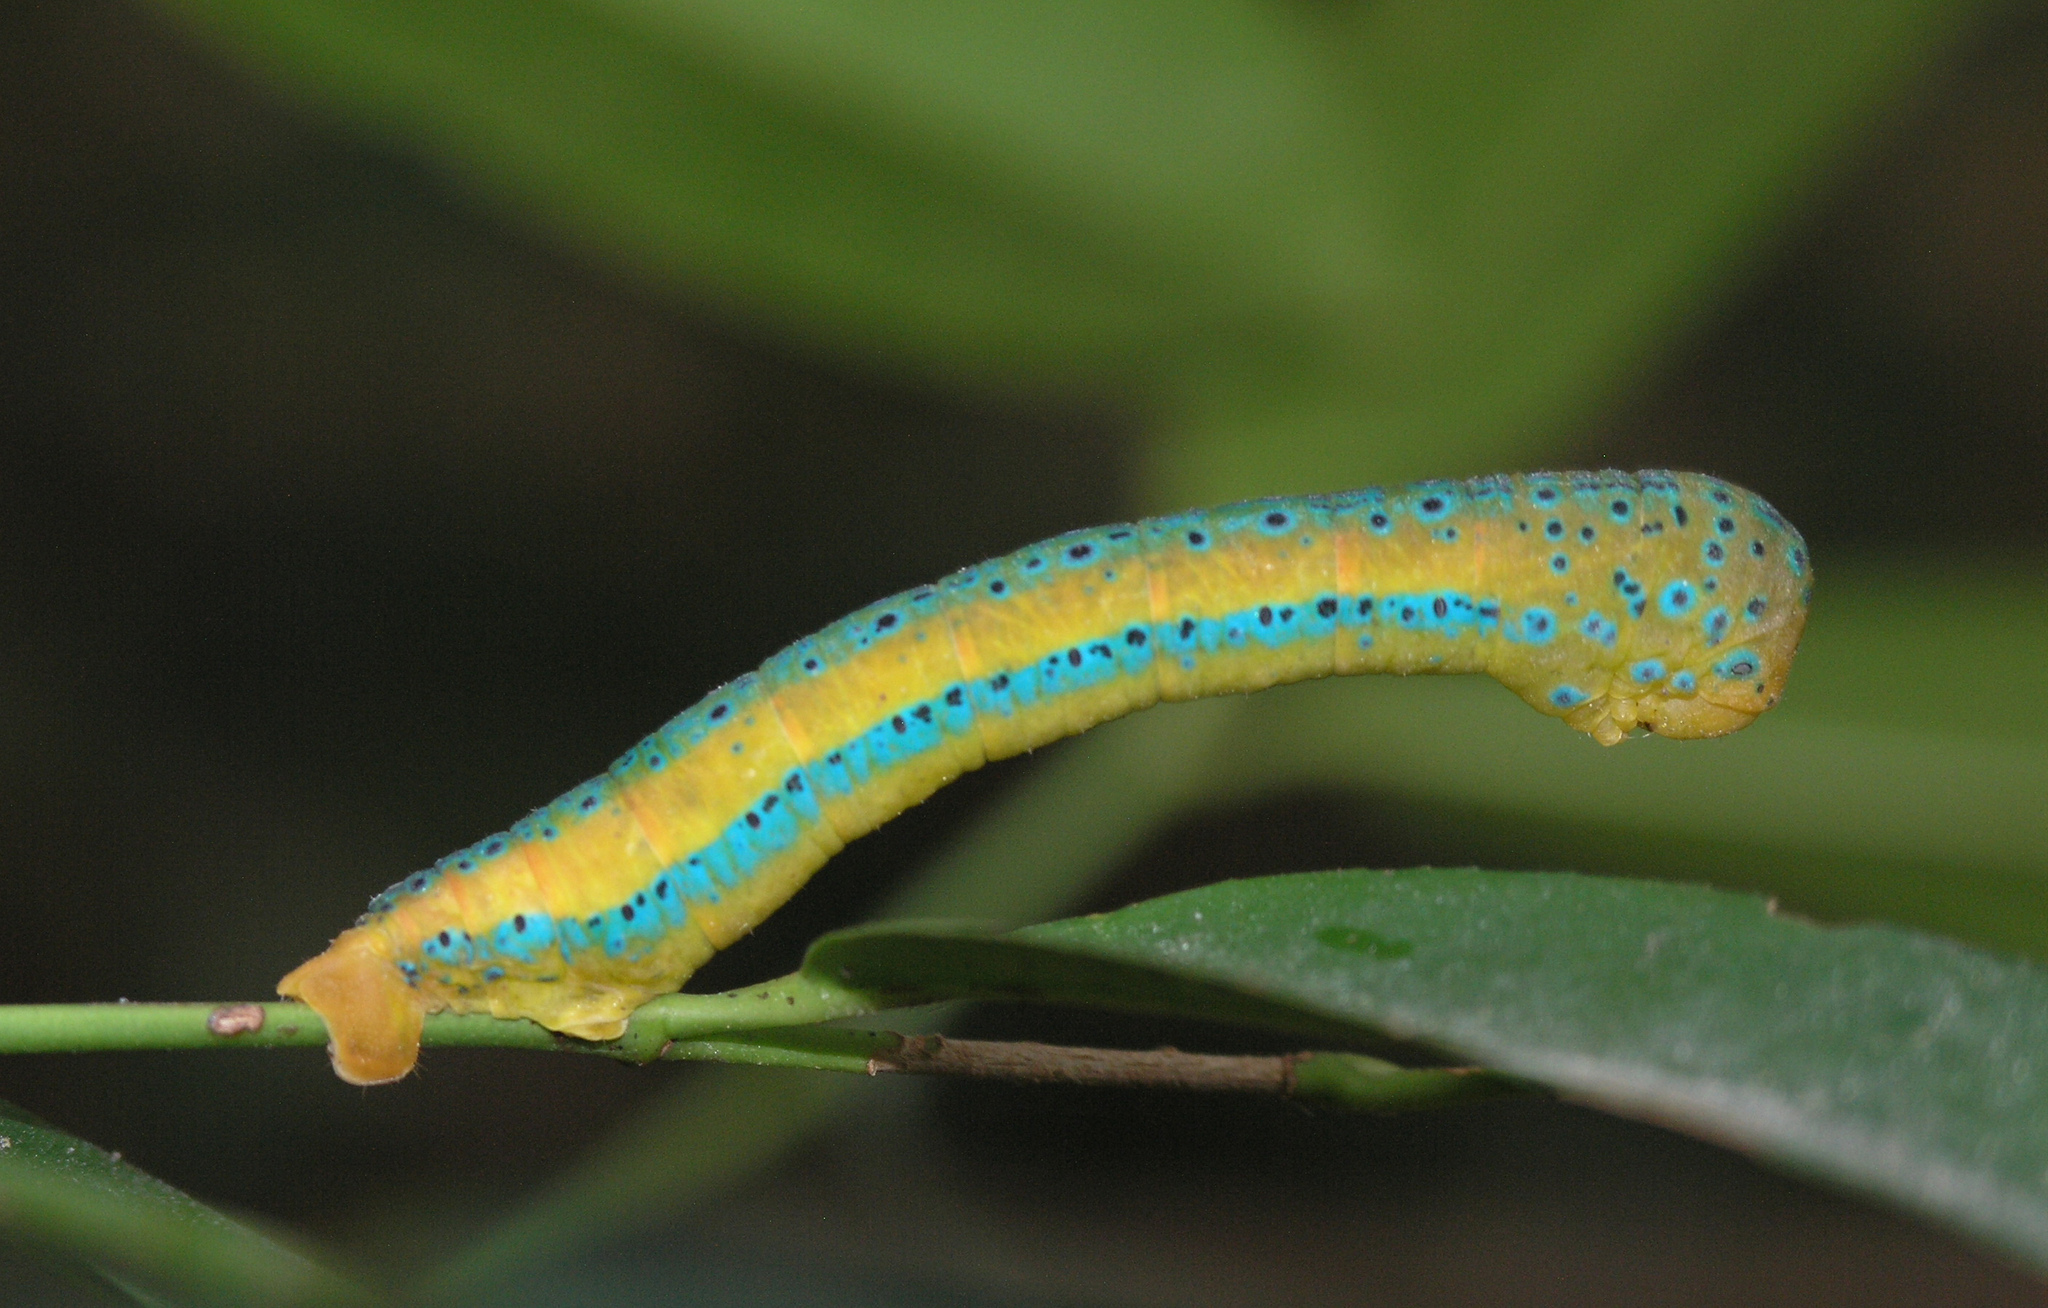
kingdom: Animalia
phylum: Arthropoda
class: Insecta
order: Lepidoptera
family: Geometridae
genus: Dysphania
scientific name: Dysphania militaris
